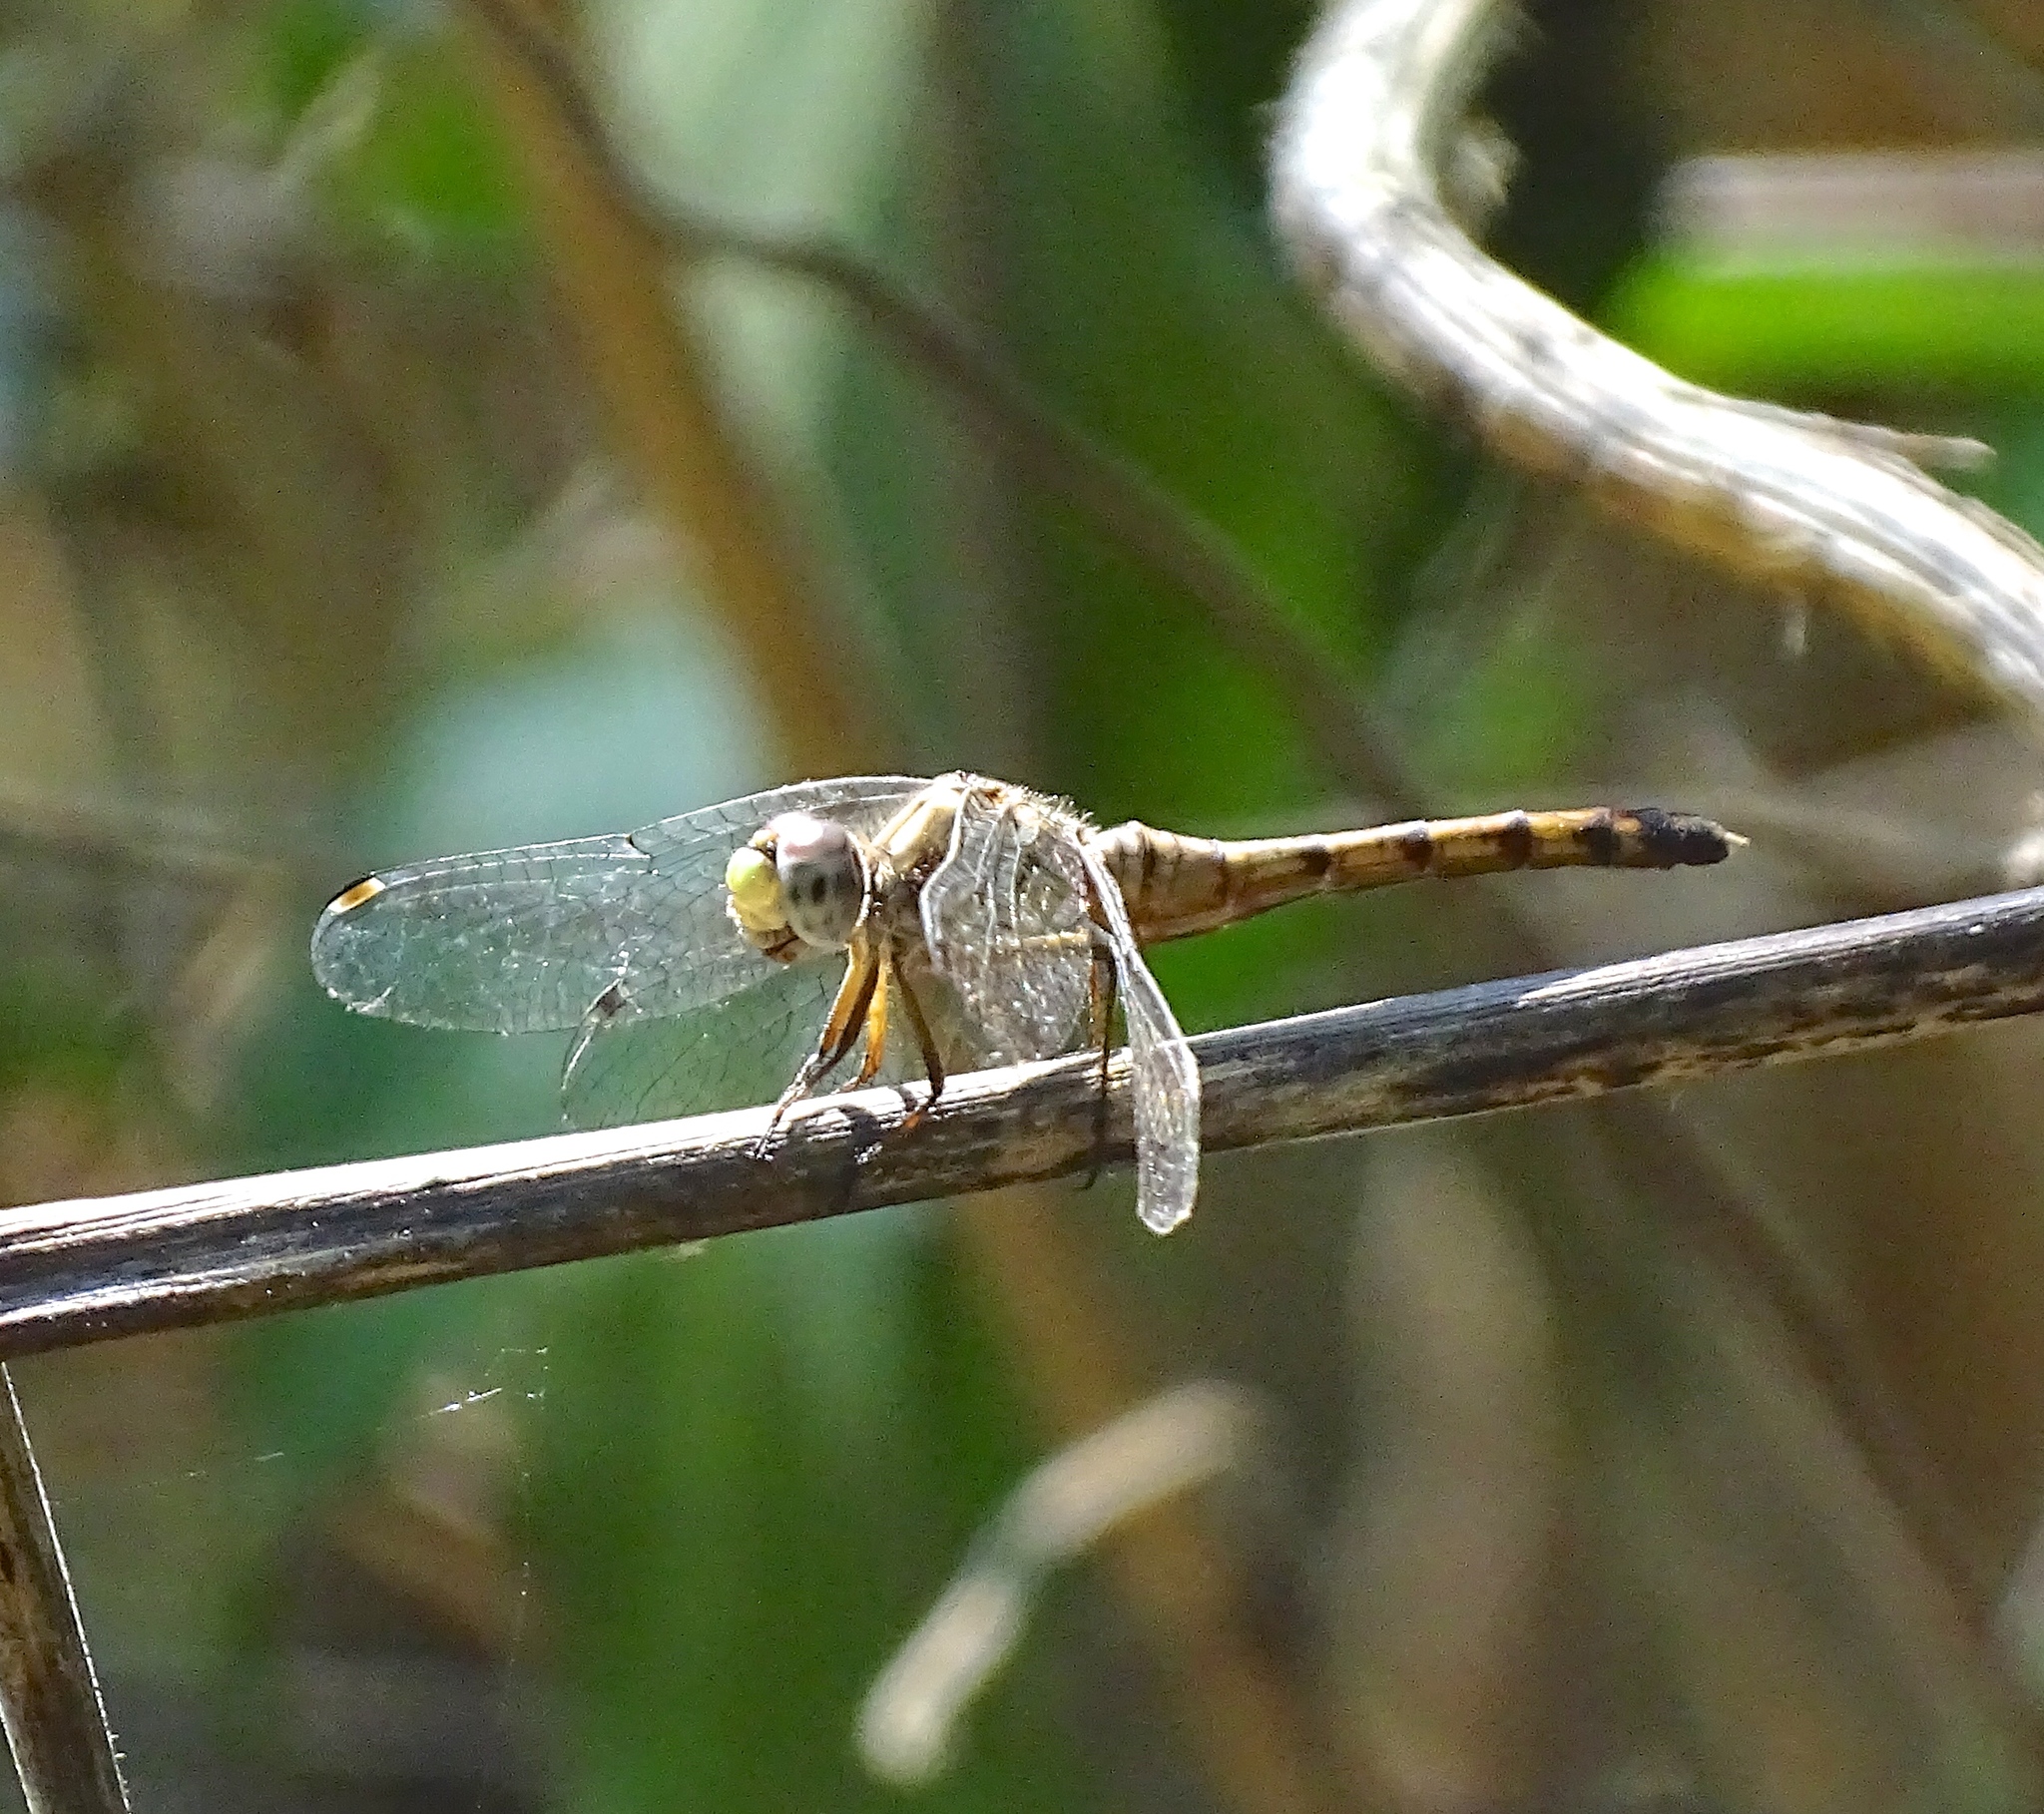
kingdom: Animalia
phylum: Arthropoda
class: Insecta
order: Odonata
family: Libellulidae
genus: Sympetrum
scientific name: Sympetrum ambiguum
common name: Blue-faced meadowhawk
